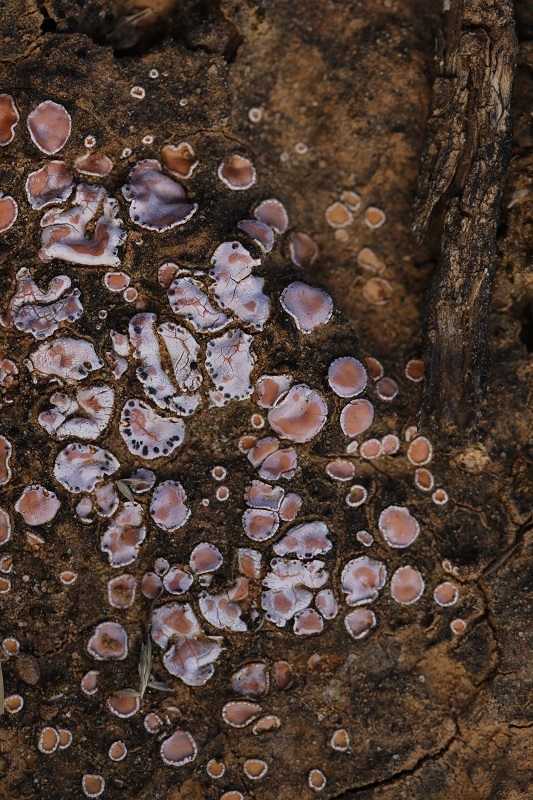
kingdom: Fungi
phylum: Ascomycota
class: Lecanoromycetes
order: Lecanorales
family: Psoraceae
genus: Psora
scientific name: Psora decipiens
